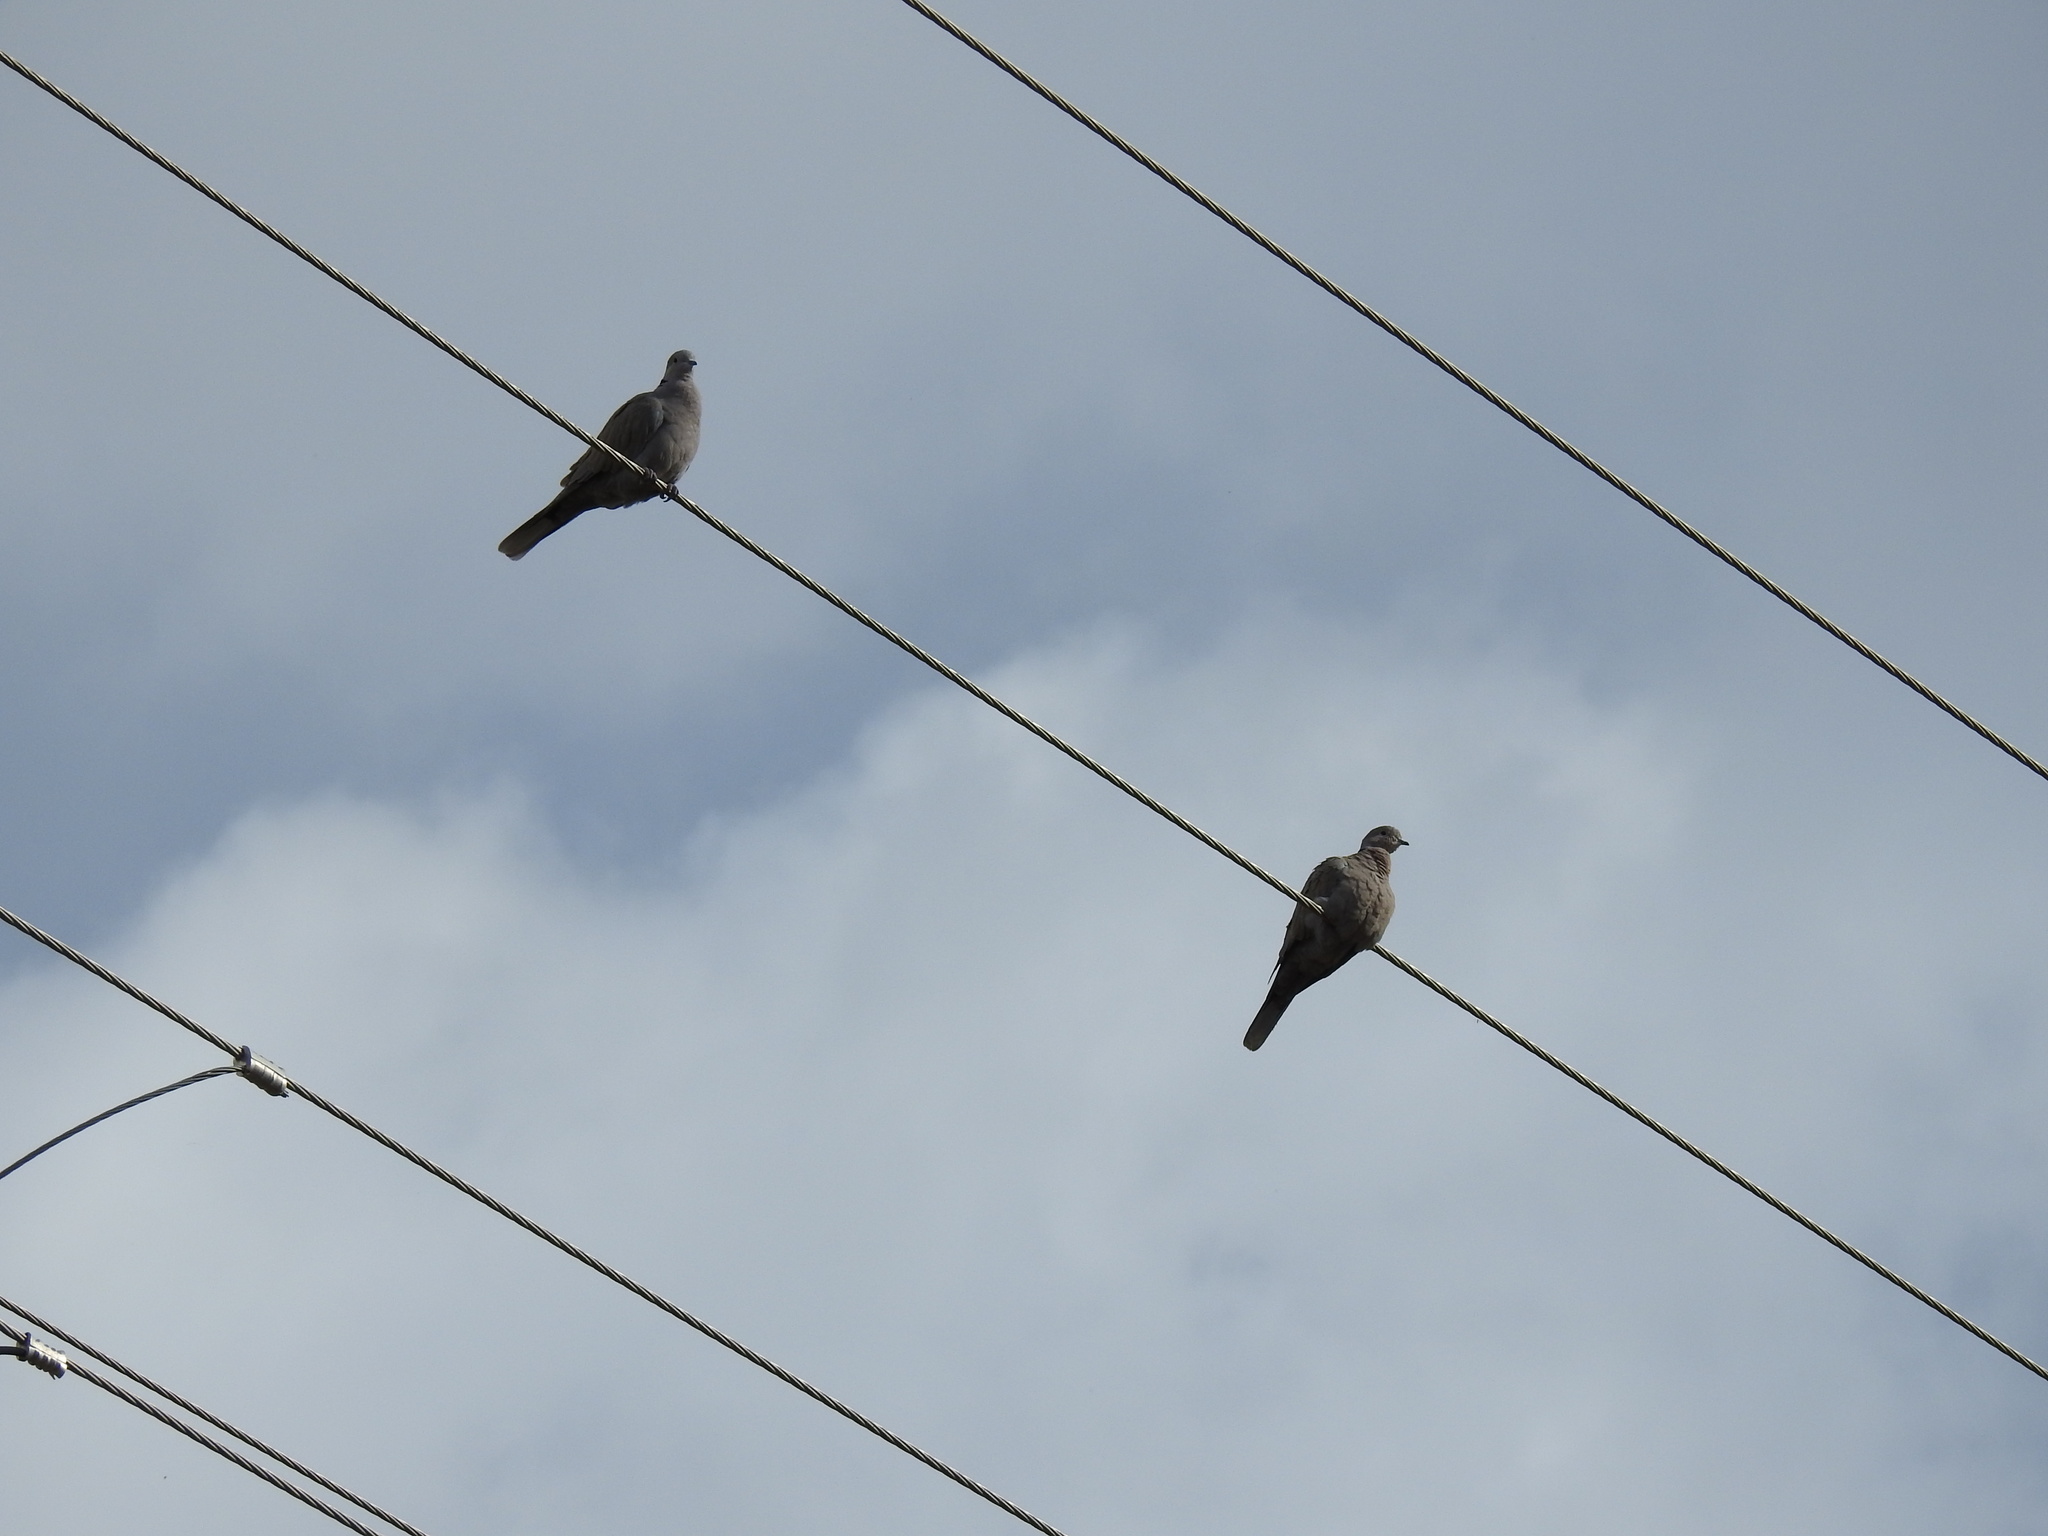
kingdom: Animalia
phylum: Chordata
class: Aves
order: Columbiformes
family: Columbidae
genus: Streptopelia
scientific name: Streptopelia decaocto
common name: Eurasian collared dove
